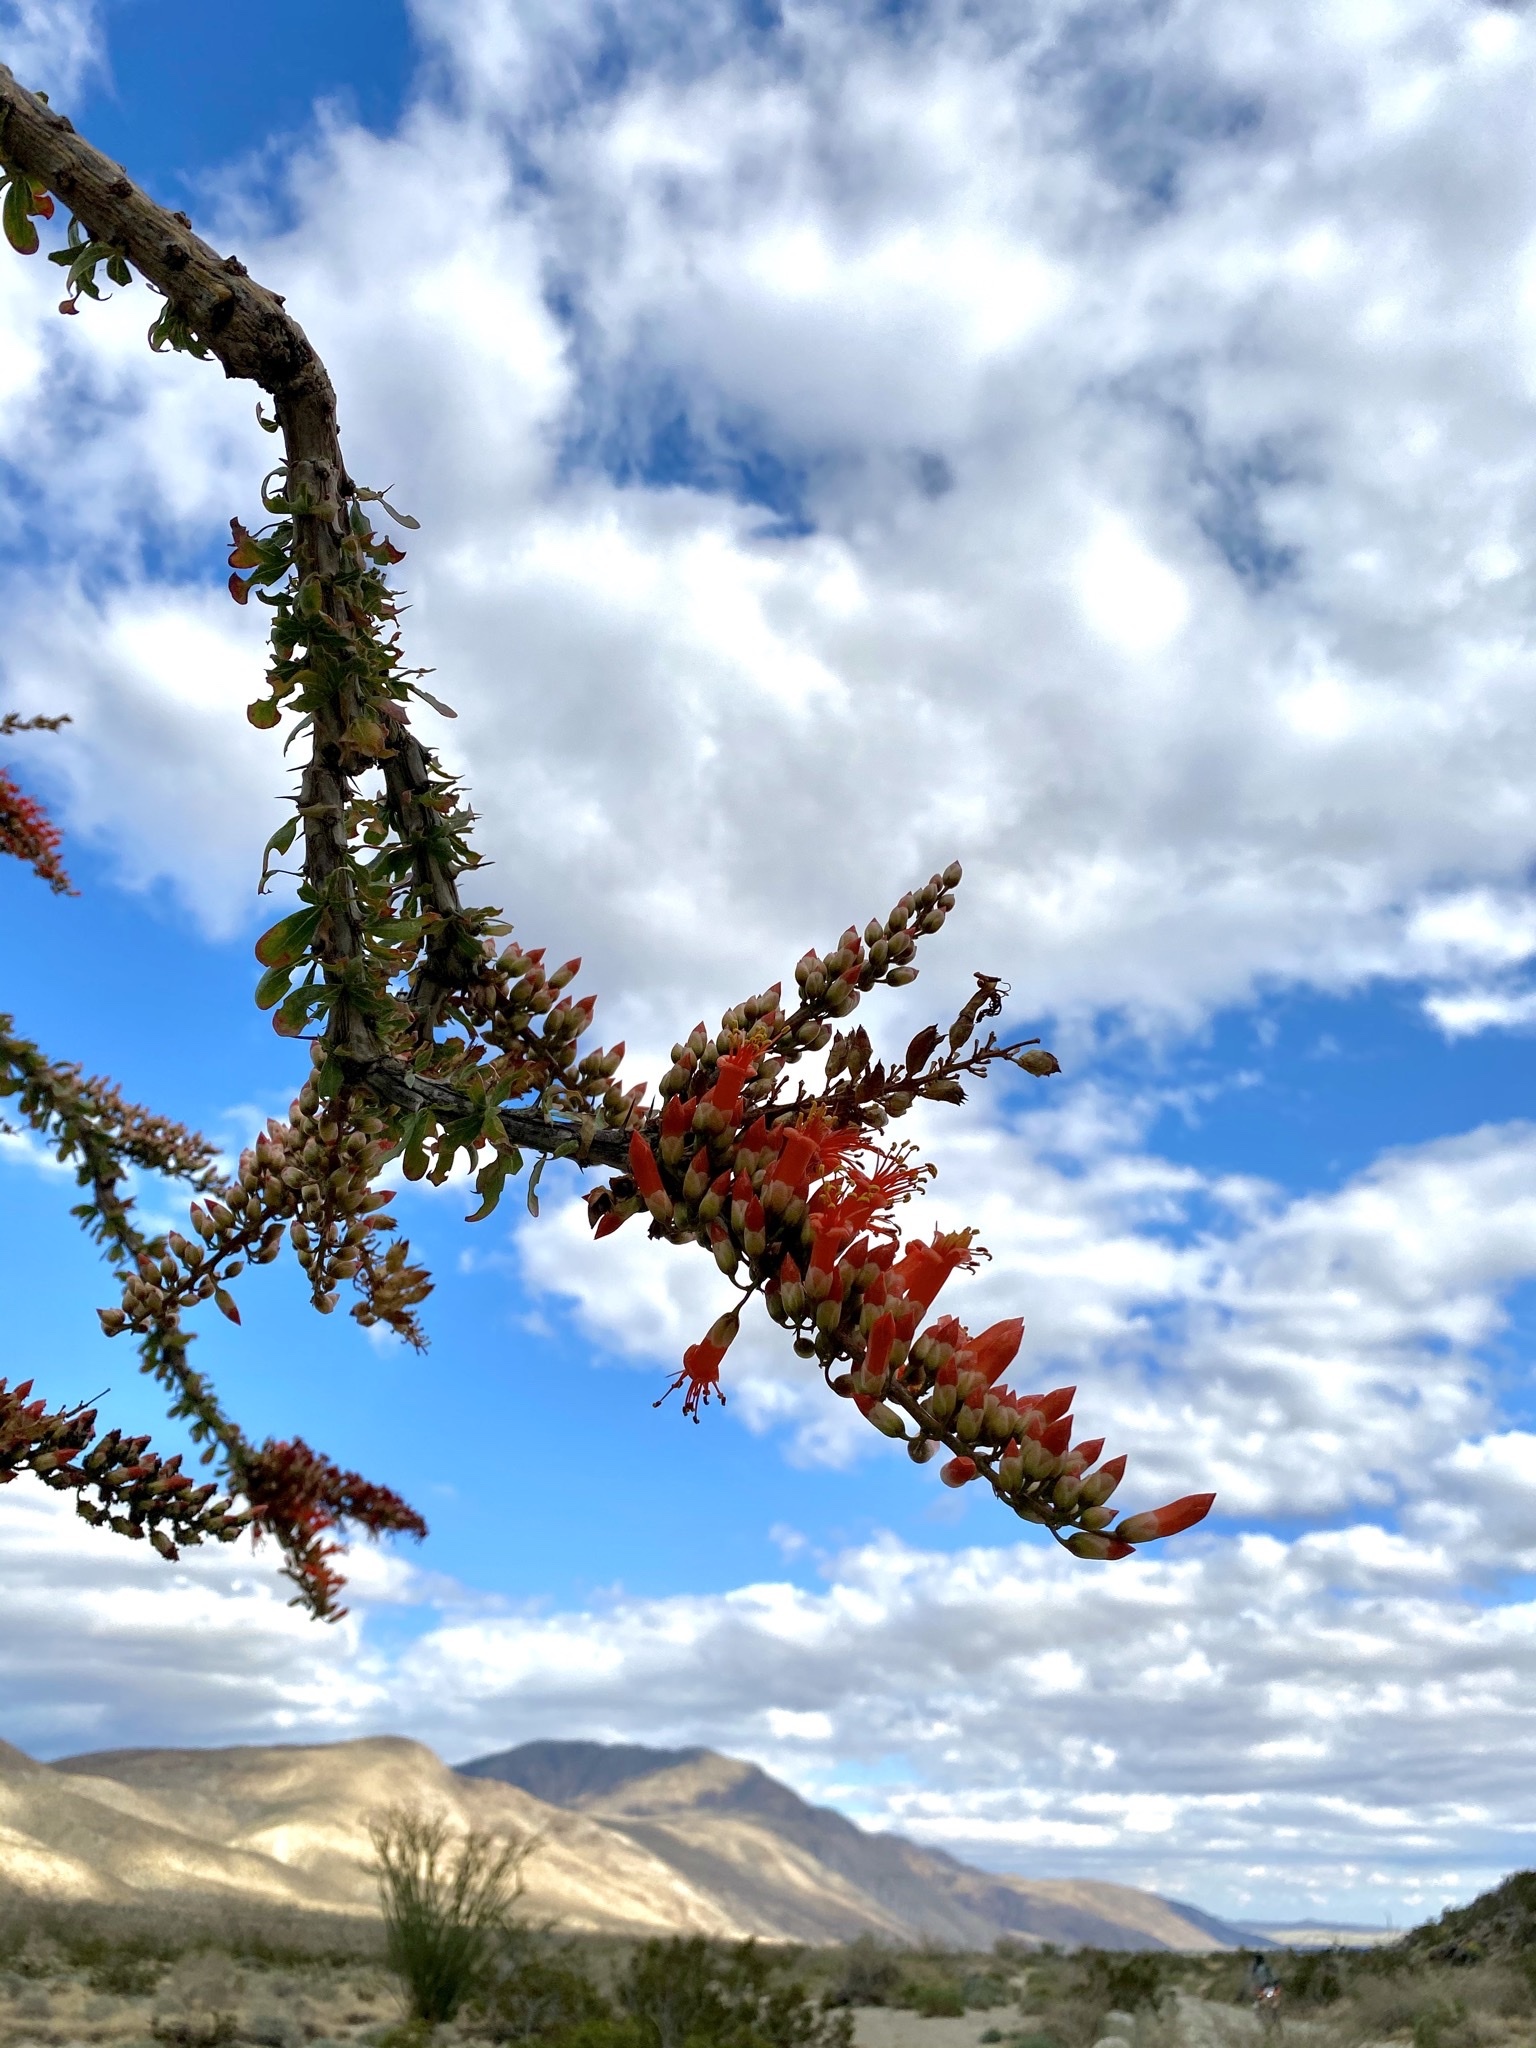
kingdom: Plantae
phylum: Tracheophyta
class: Magnoliopsida
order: Ericales
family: Fouquieriaceae
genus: Fouquieria
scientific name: Fouquieria splendens
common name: Vine-cactus
